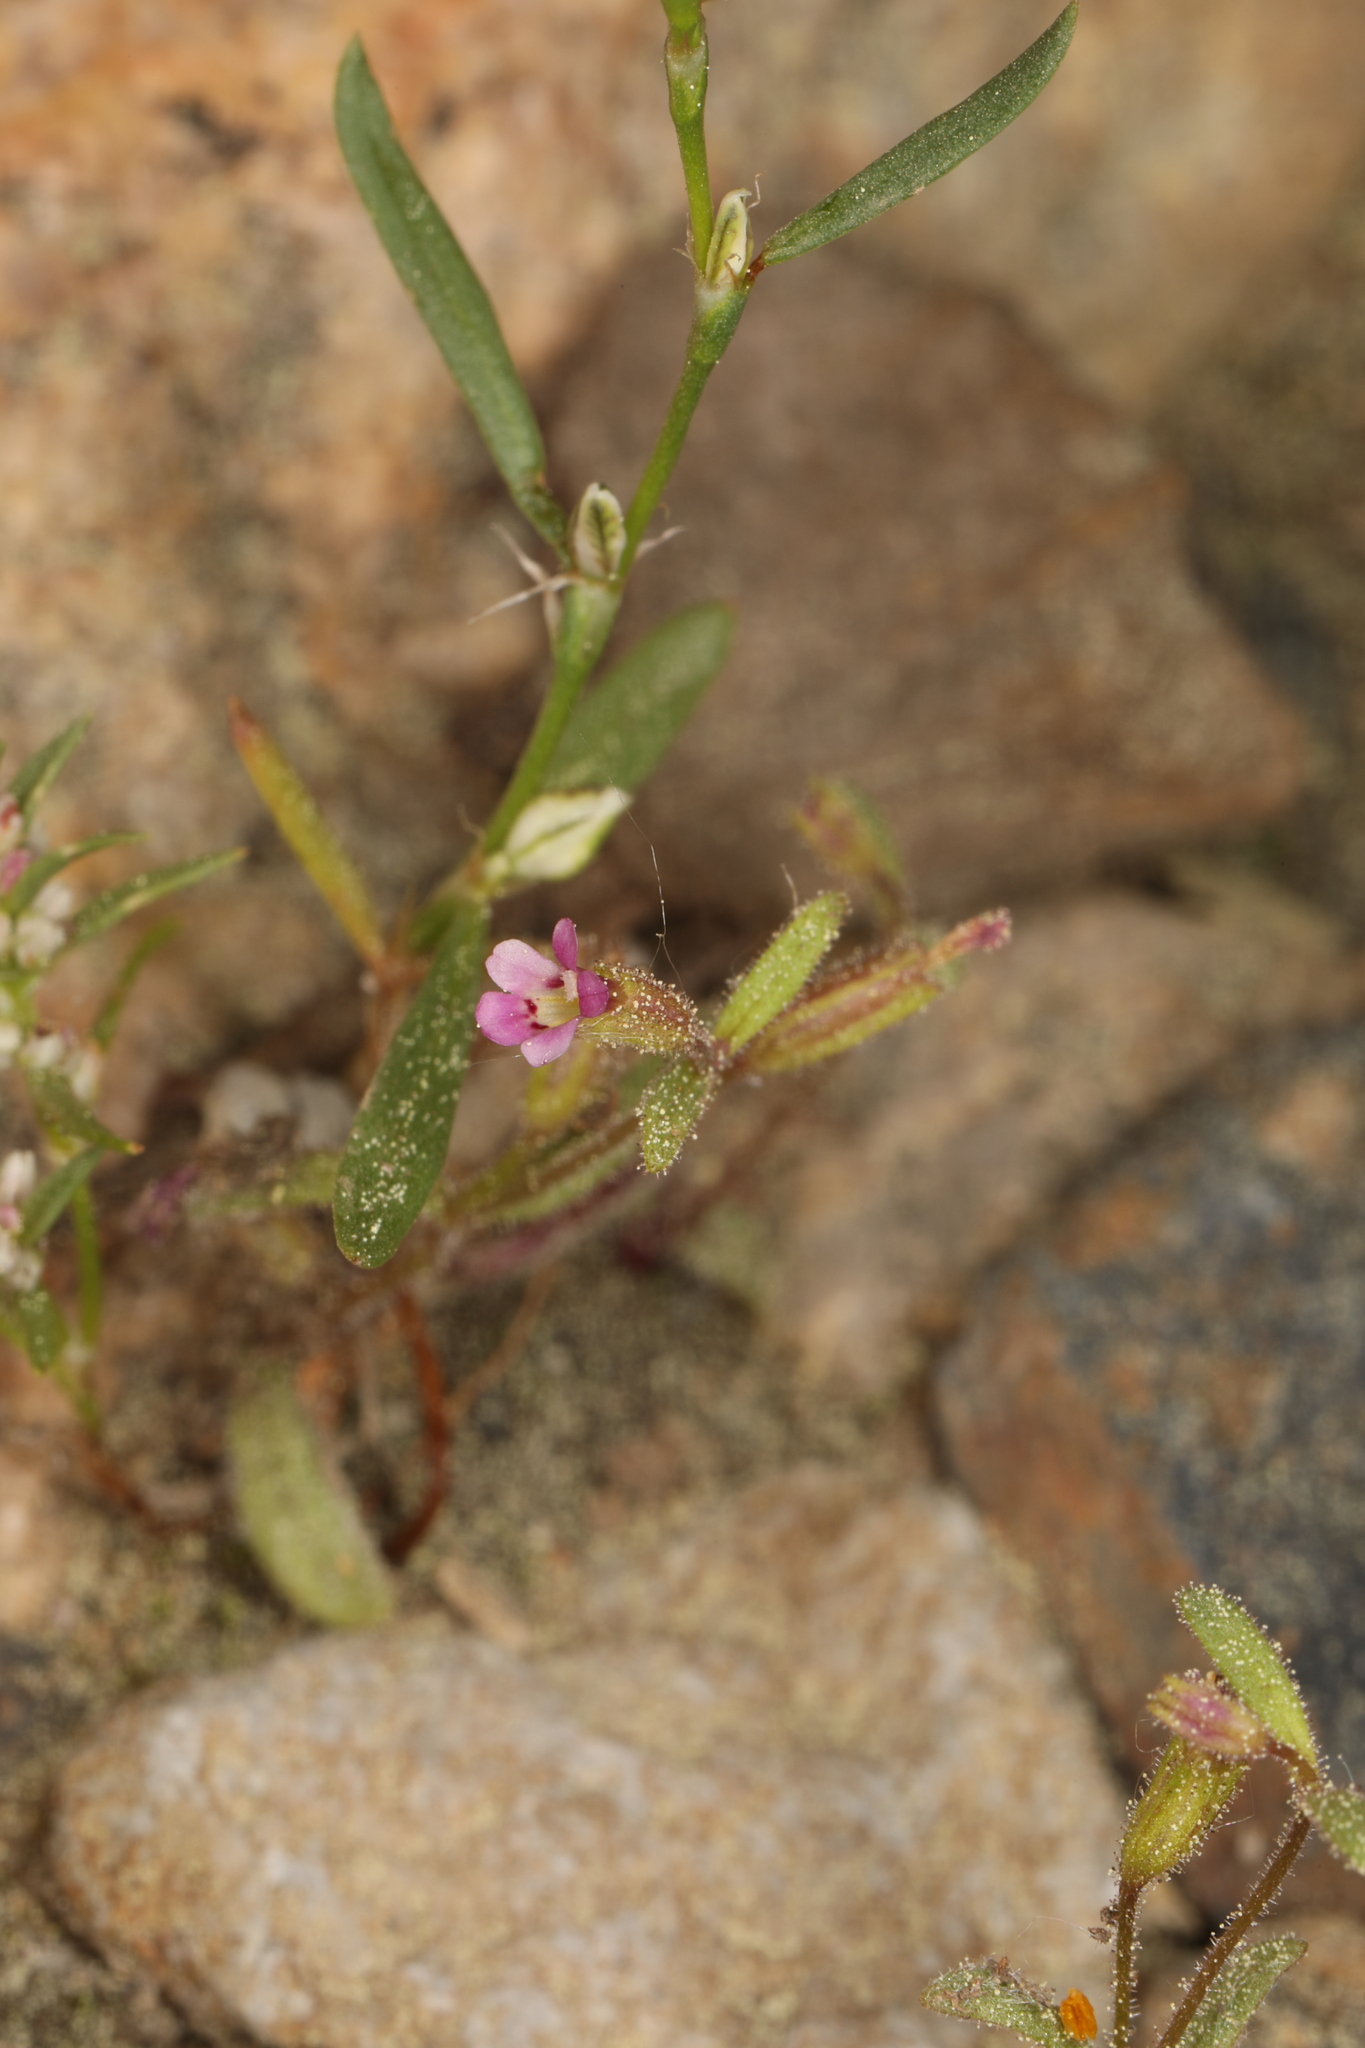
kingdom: Plantae
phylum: Tracheophyta
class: Magnoliopsida
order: Lamiales
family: Phrymaceae
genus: Erythranthe
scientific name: Erythranthe breweri
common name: Brewer's monkeyflower
